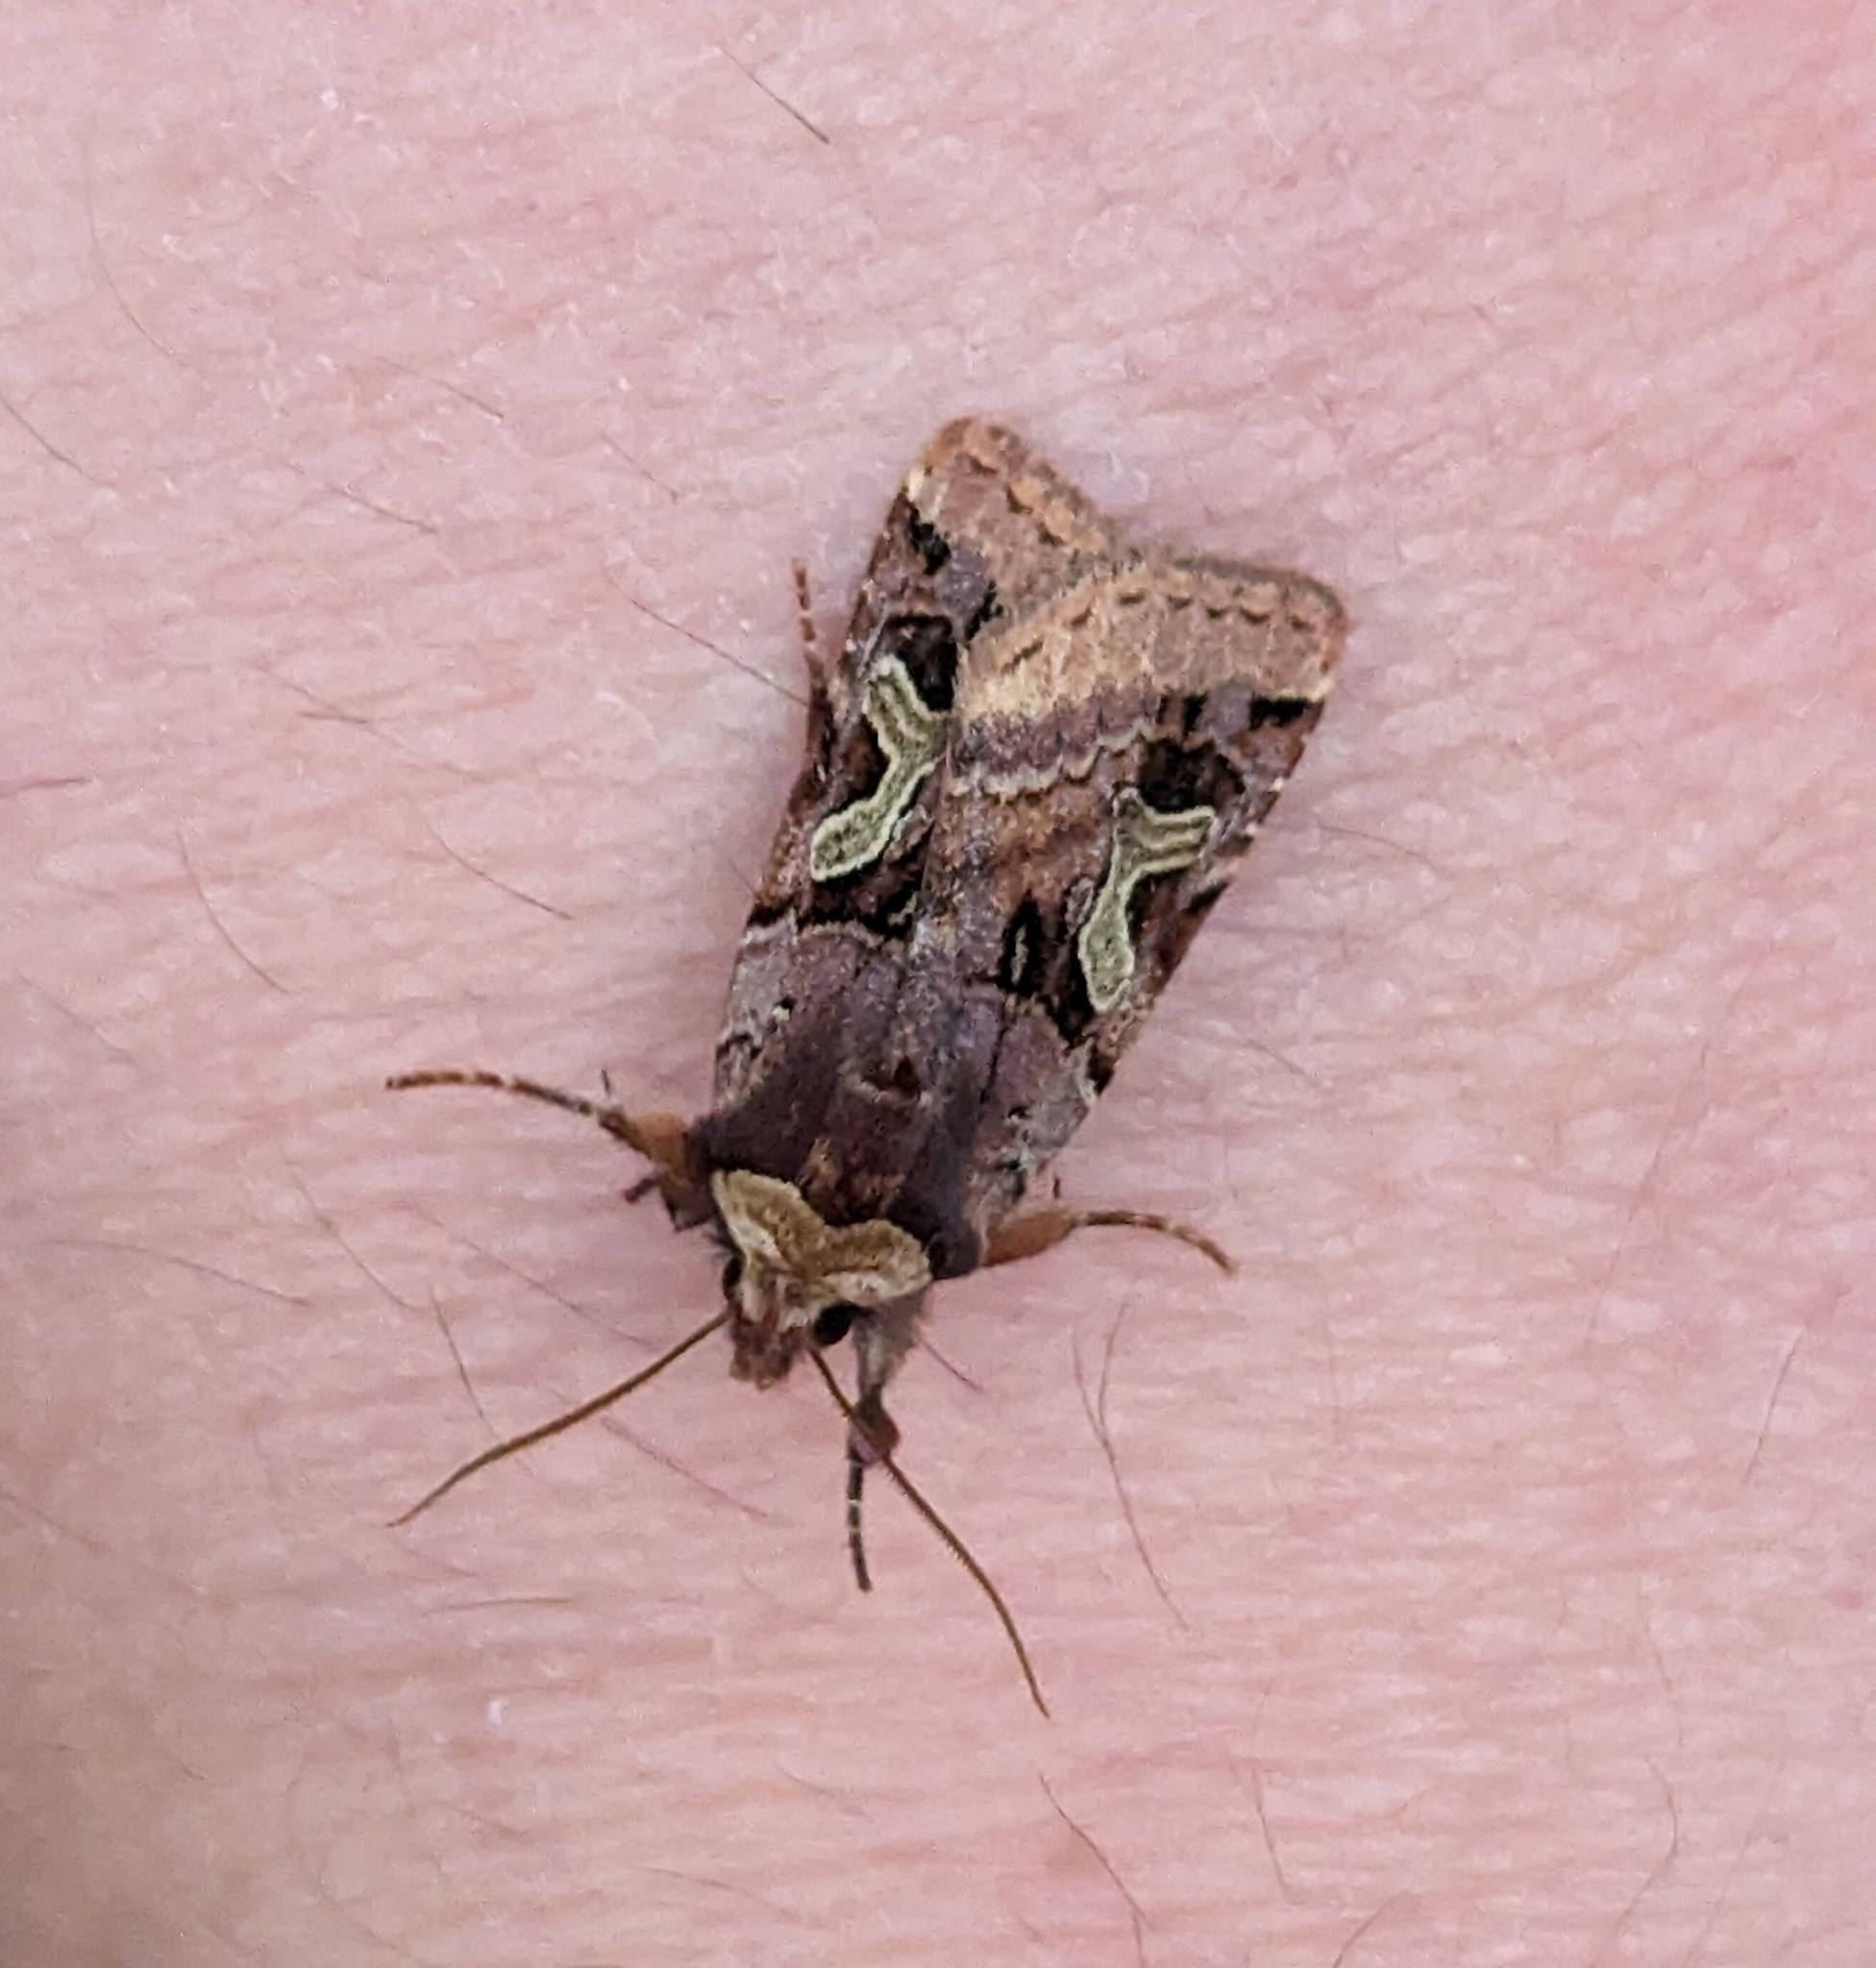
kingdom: Animalia
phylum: Arthropoda
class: Insecta
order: Lepidoptera
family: Noctuidae
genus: Cerastis
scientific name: Cerastis enigmatica
